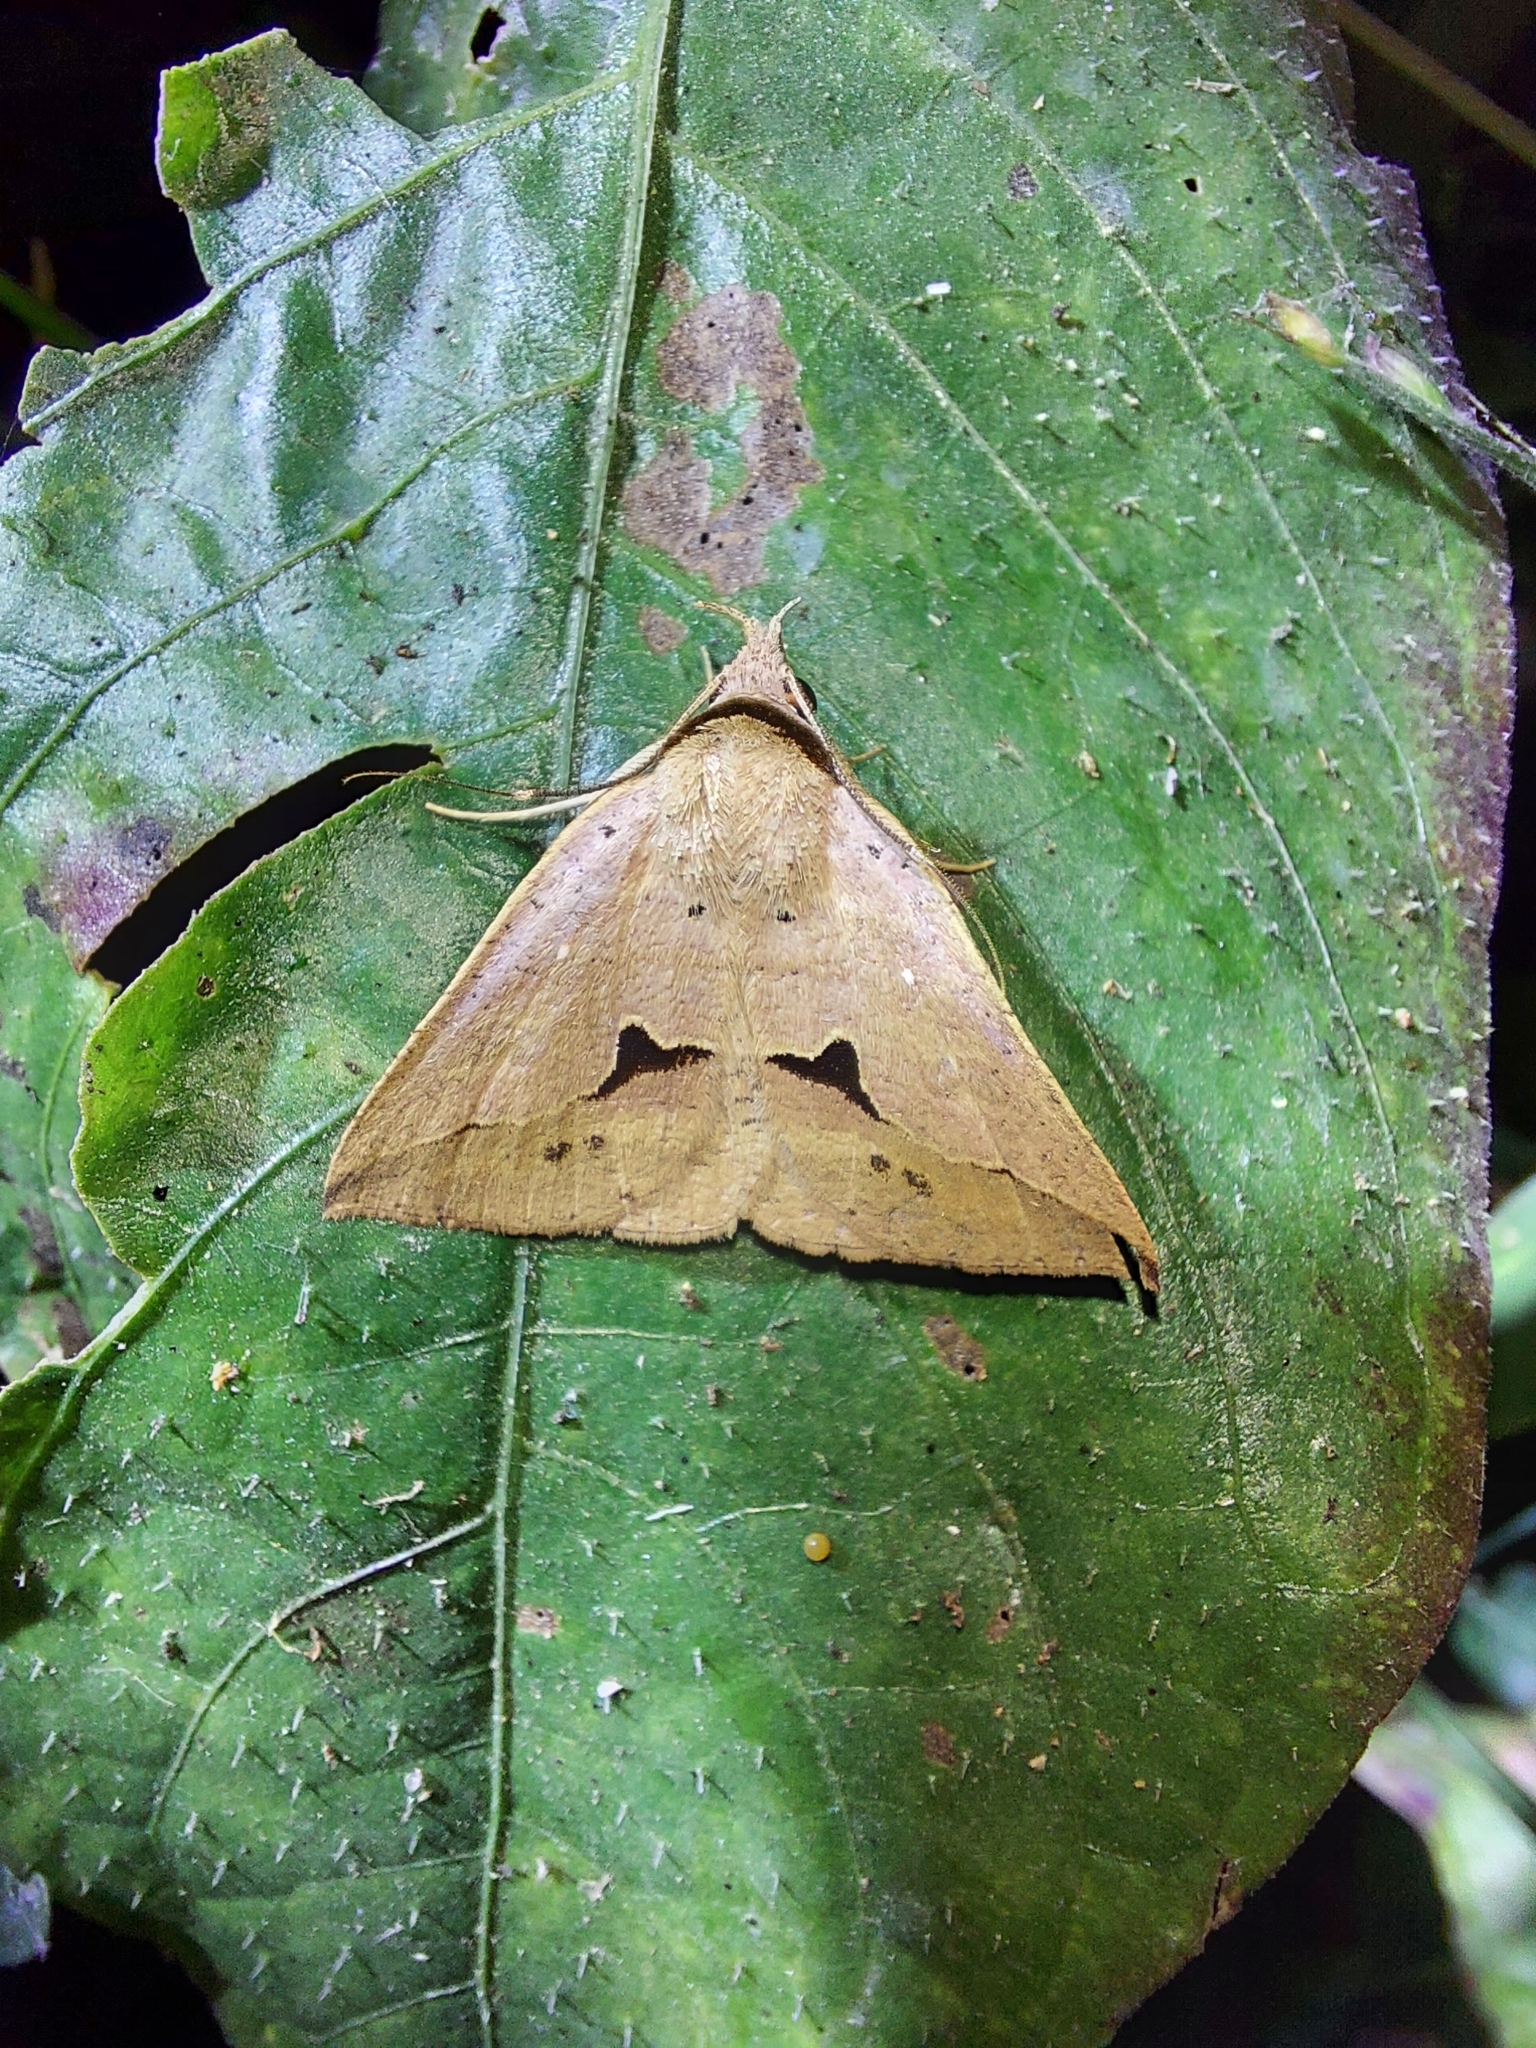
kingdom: Animalia
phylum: Arthropoda
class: Insecta
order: Lepidoptera
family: Erebidae
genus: Dierna
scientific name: Dierna patibulum
